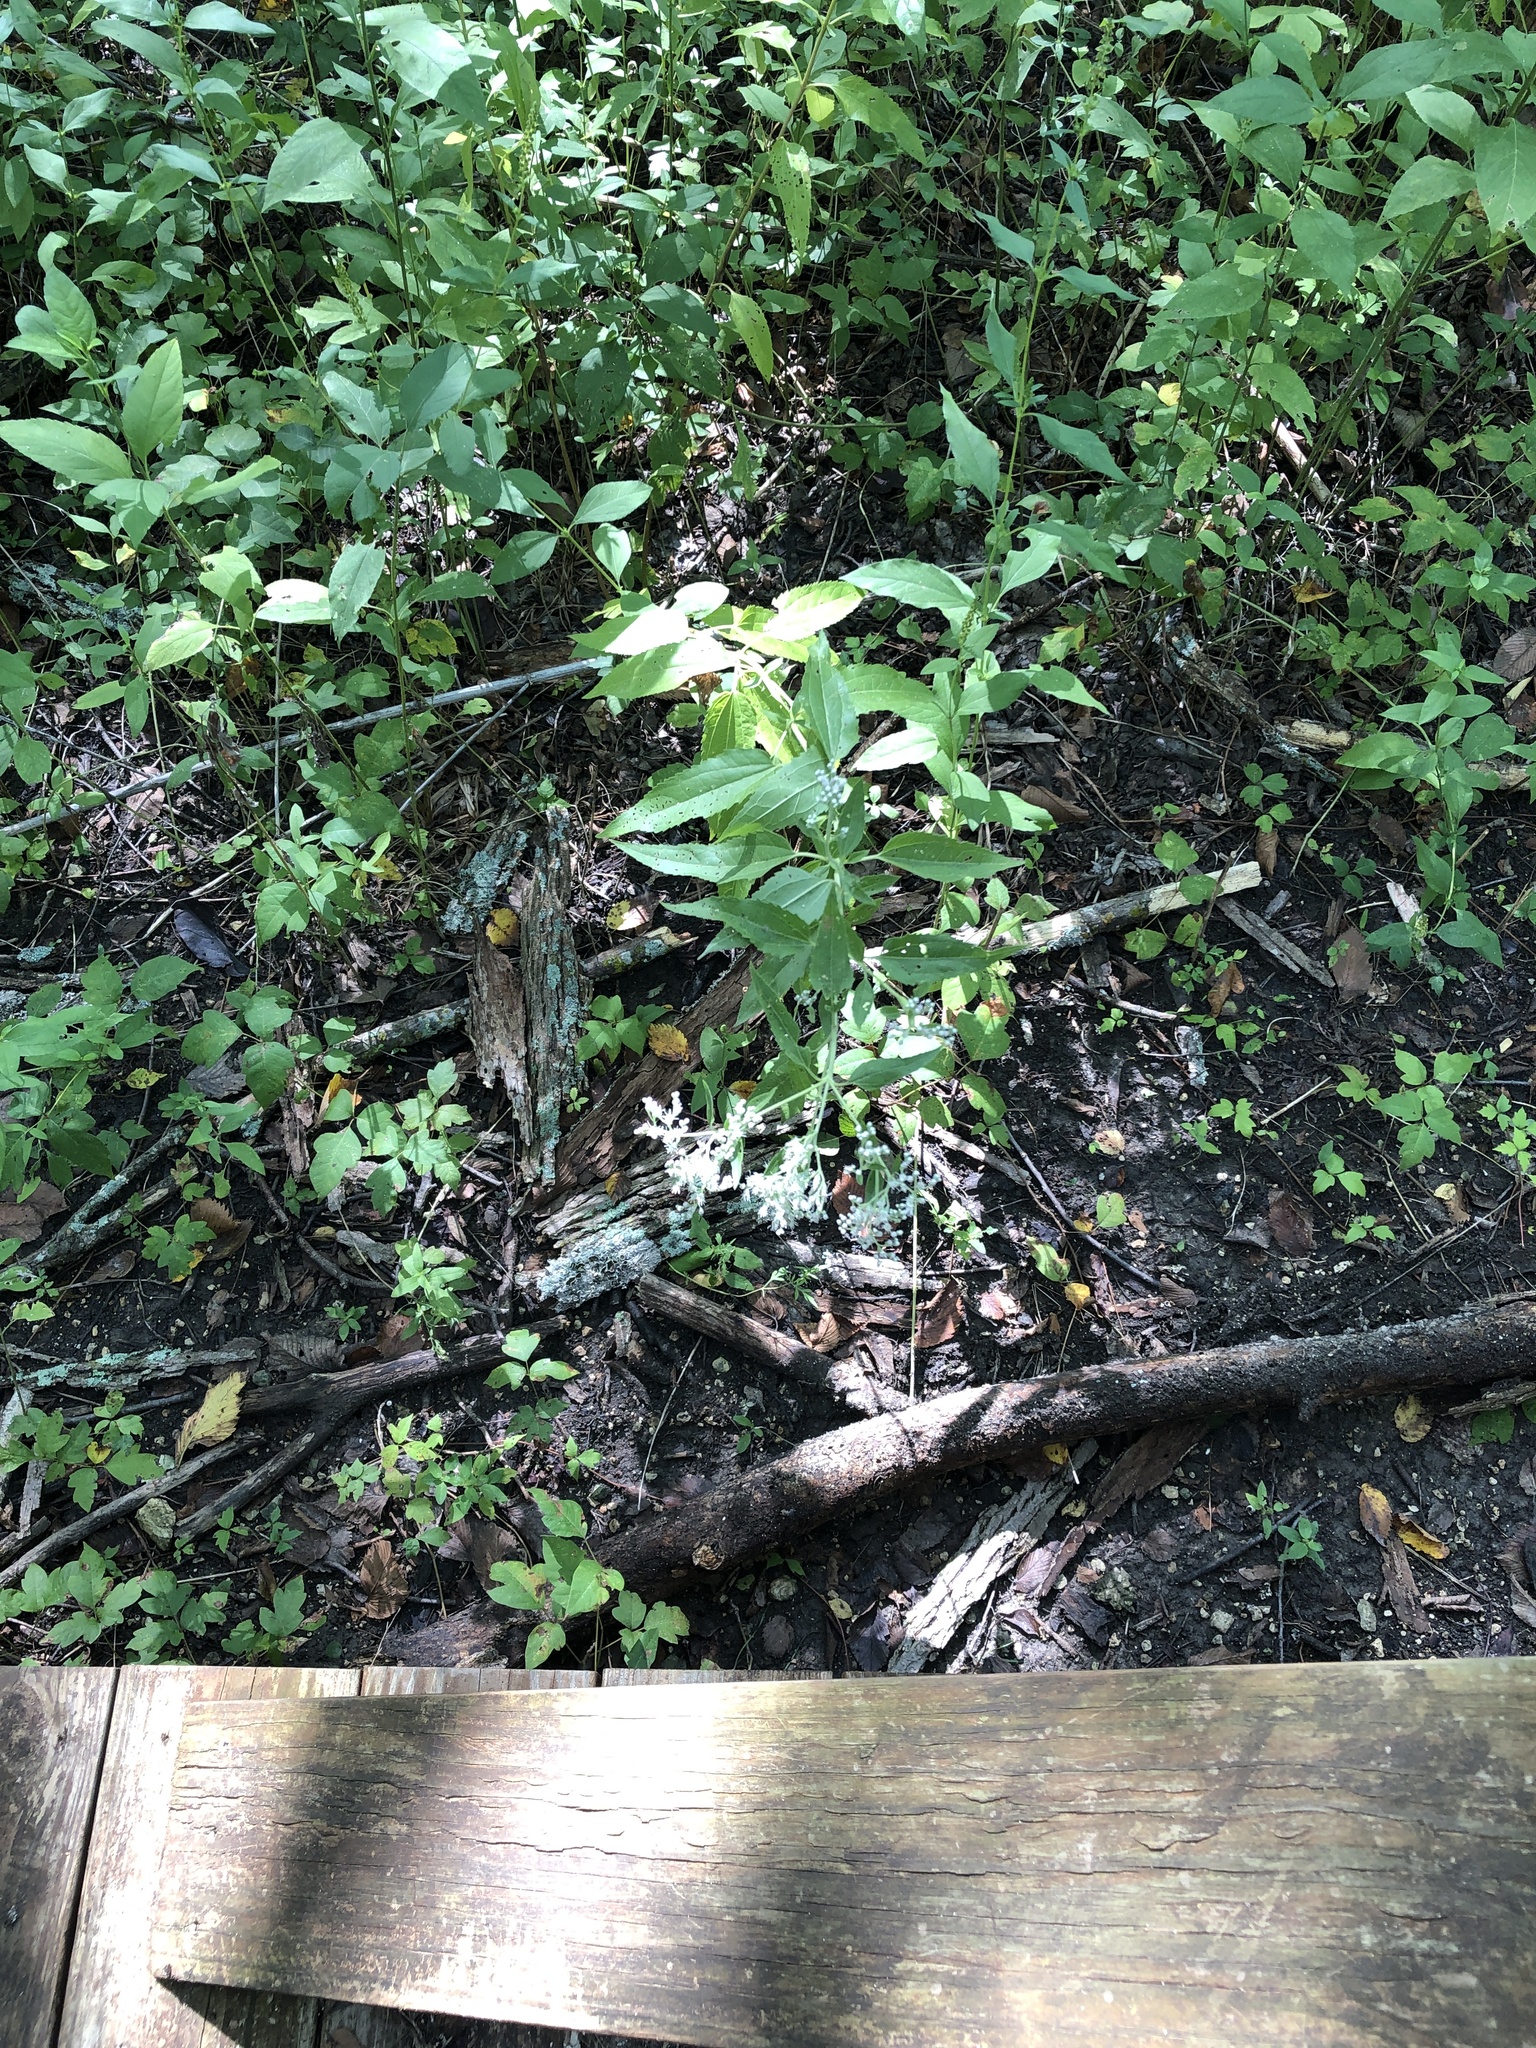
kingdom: Plantae
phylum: Tracheophyta
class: Magnoliopsida
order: Asterales
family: Asteraceae
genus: Eupatorium
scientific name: Eupatorium serotinum
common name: Late boneset
